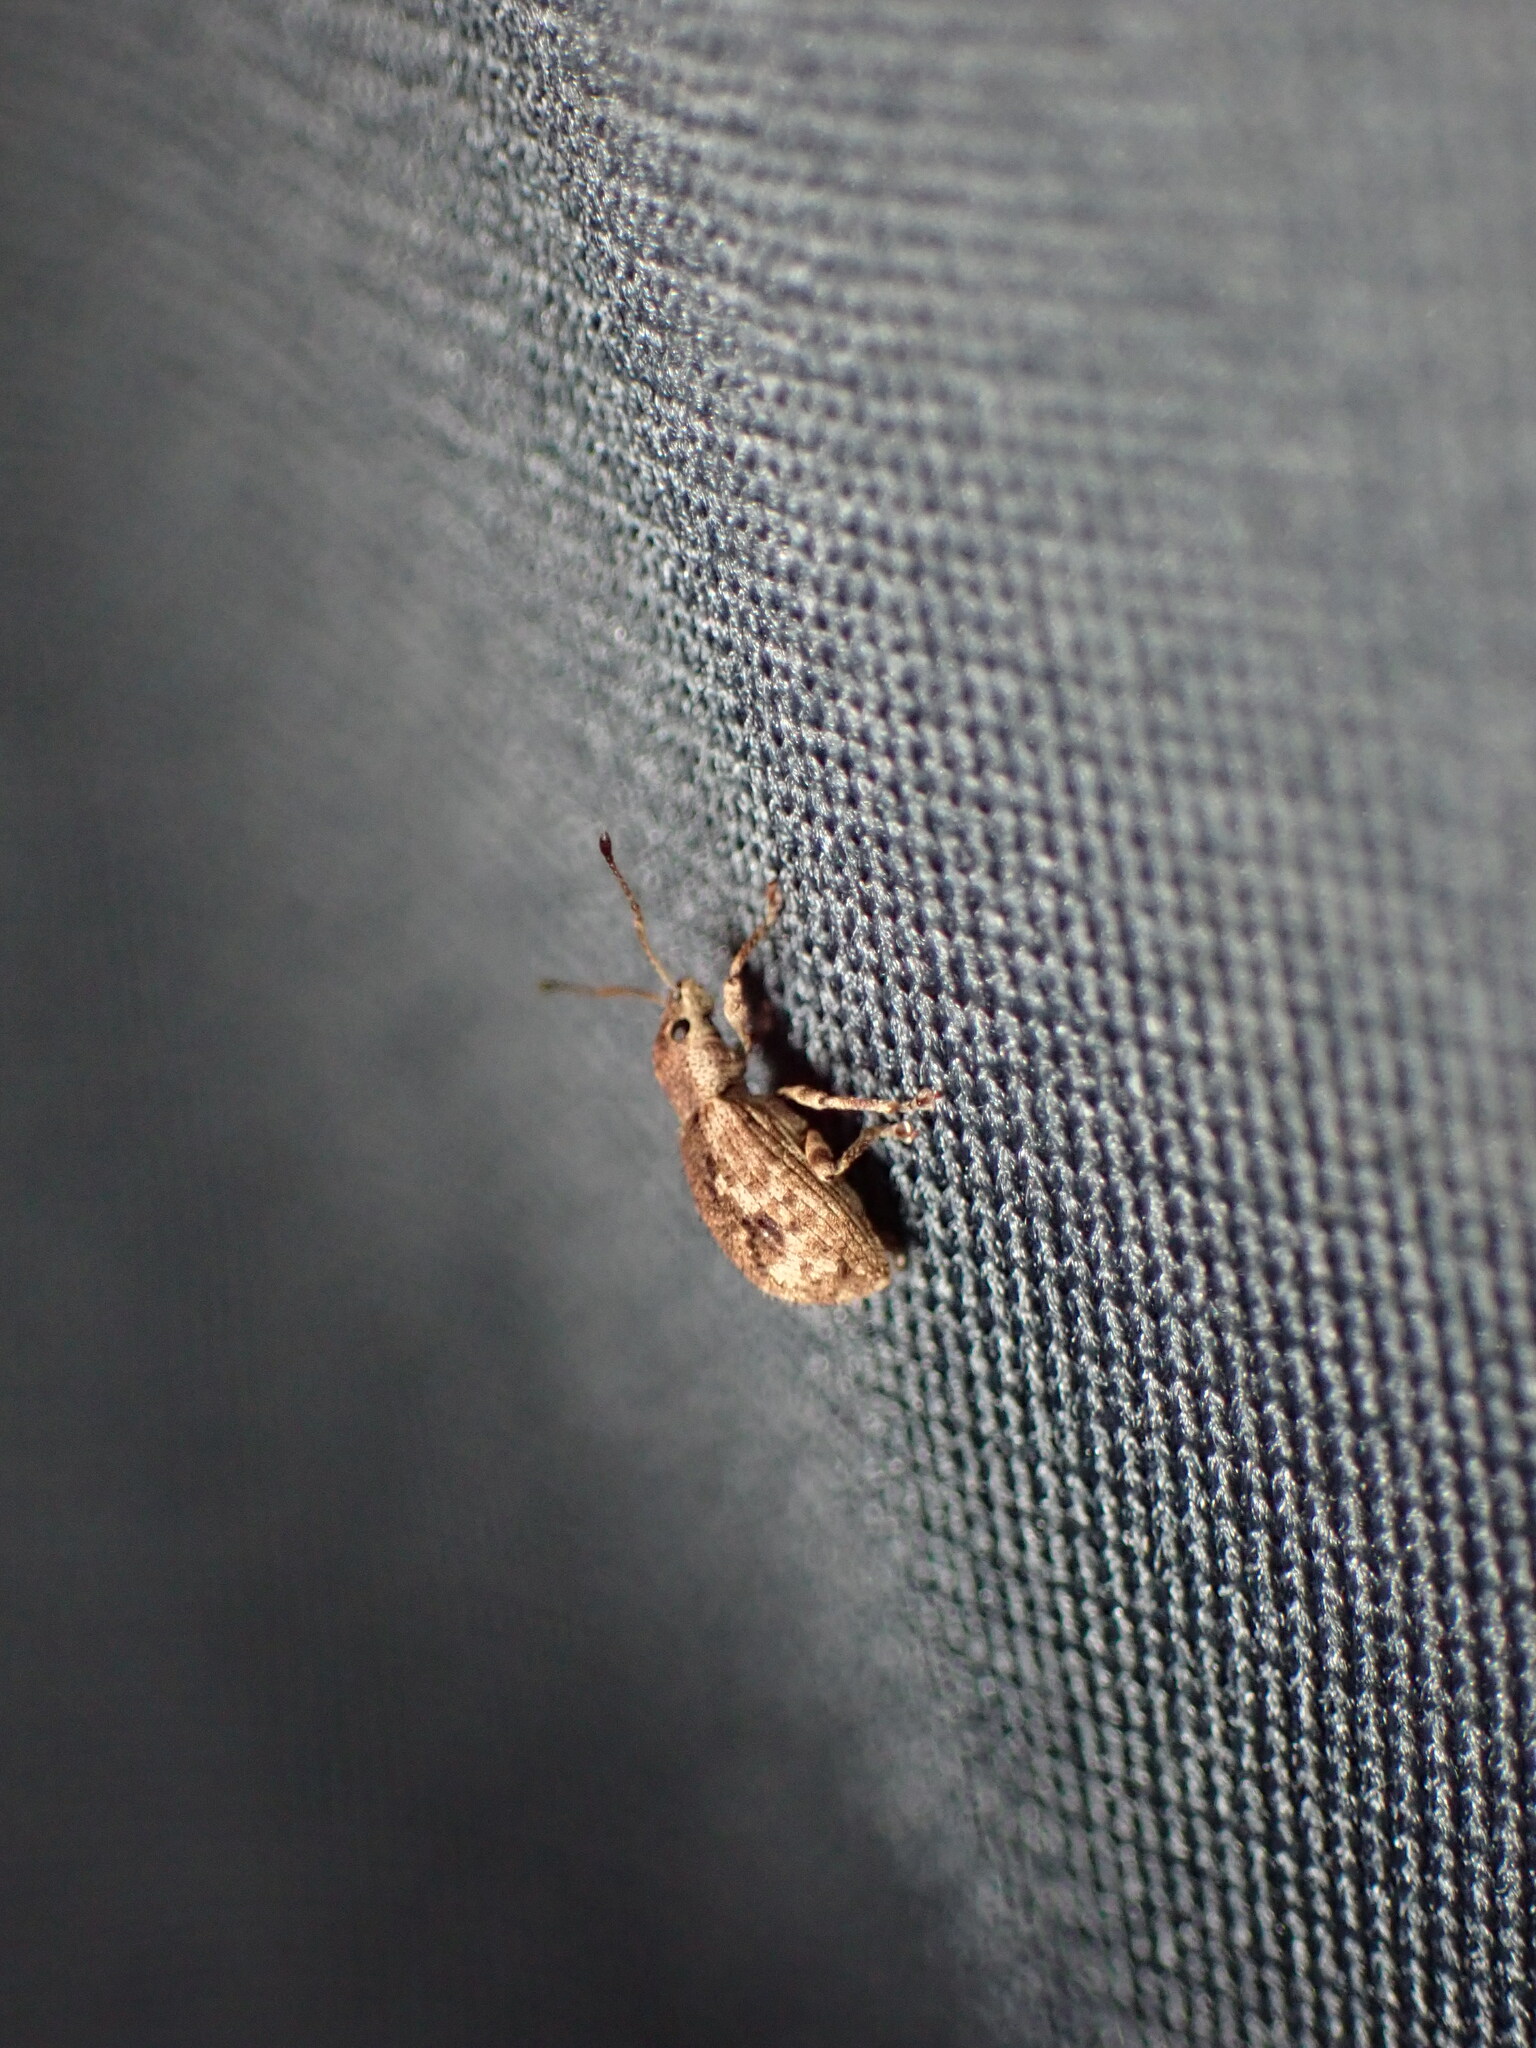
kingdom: Animalia
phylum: Arthropoda
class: Insecta
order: Coleoptera
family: Curculionidae
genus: Pseudoedophrys
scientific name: Pseudoedophrys hilleri
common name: Weevil
